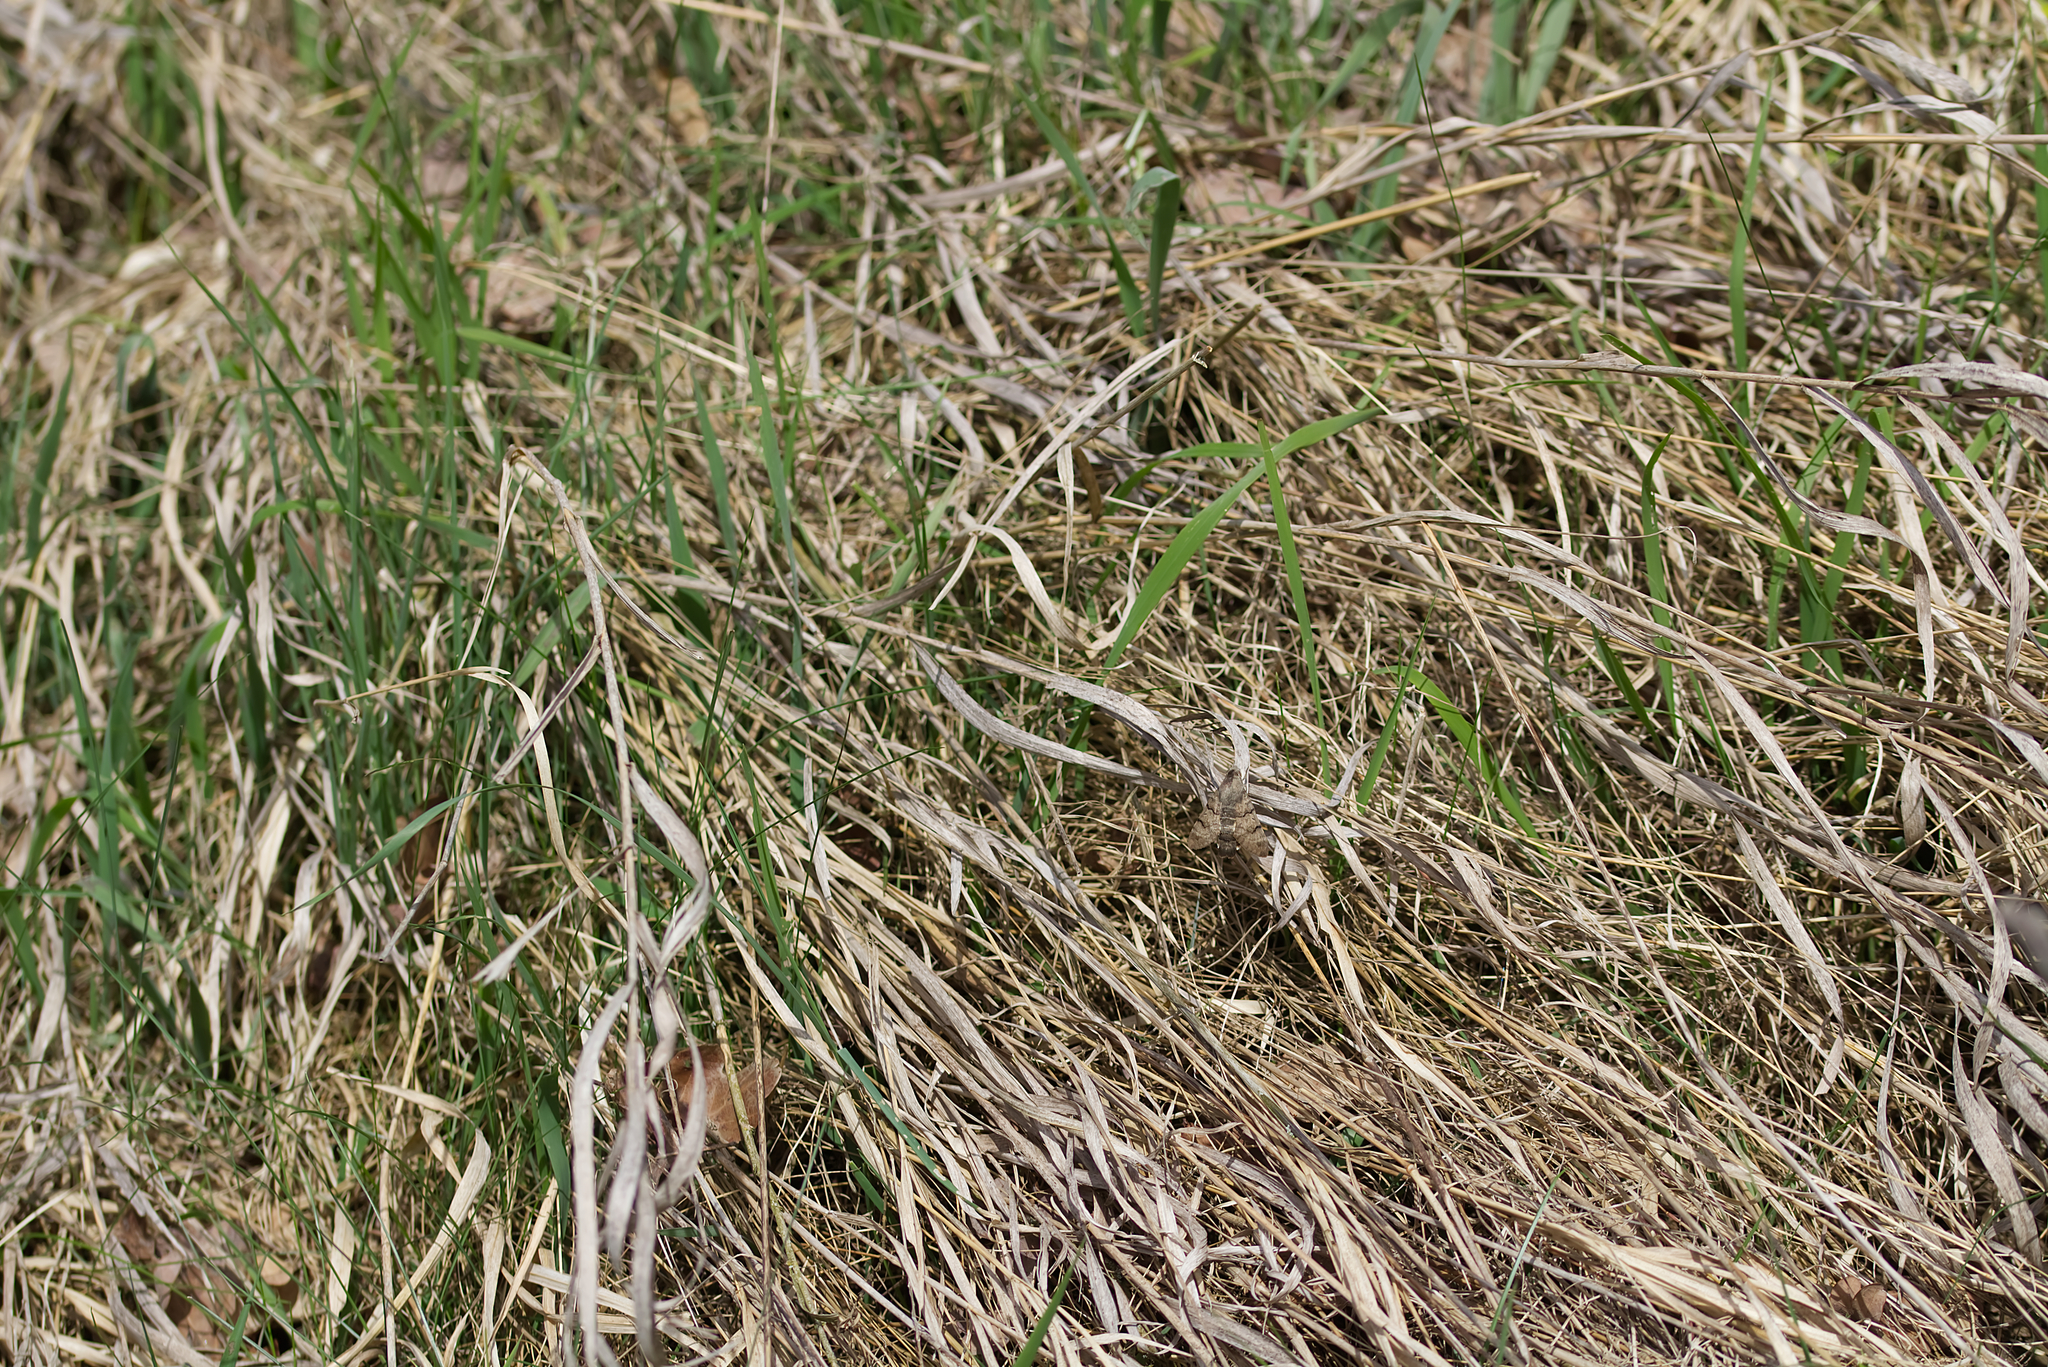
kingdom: Animalia
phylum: Arthropoda
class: Insecta
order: Lepidoptera
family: Sphingidae
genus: Macroglossum
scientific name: Macroglossum stellatarum
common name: Humming-bird hawk-moth
